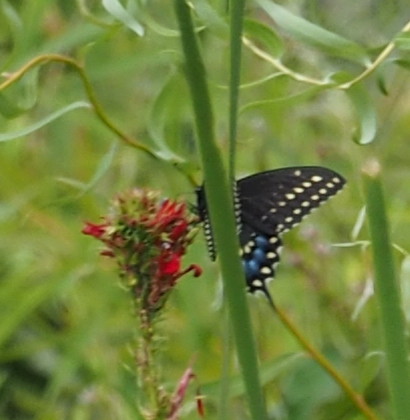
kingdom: Animalia
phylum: Arthropoda
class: Insecta
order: Lepidoptera
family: Papilionidae
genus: Papilio
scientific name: Papilio polyxenes
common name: Black swallowtail
